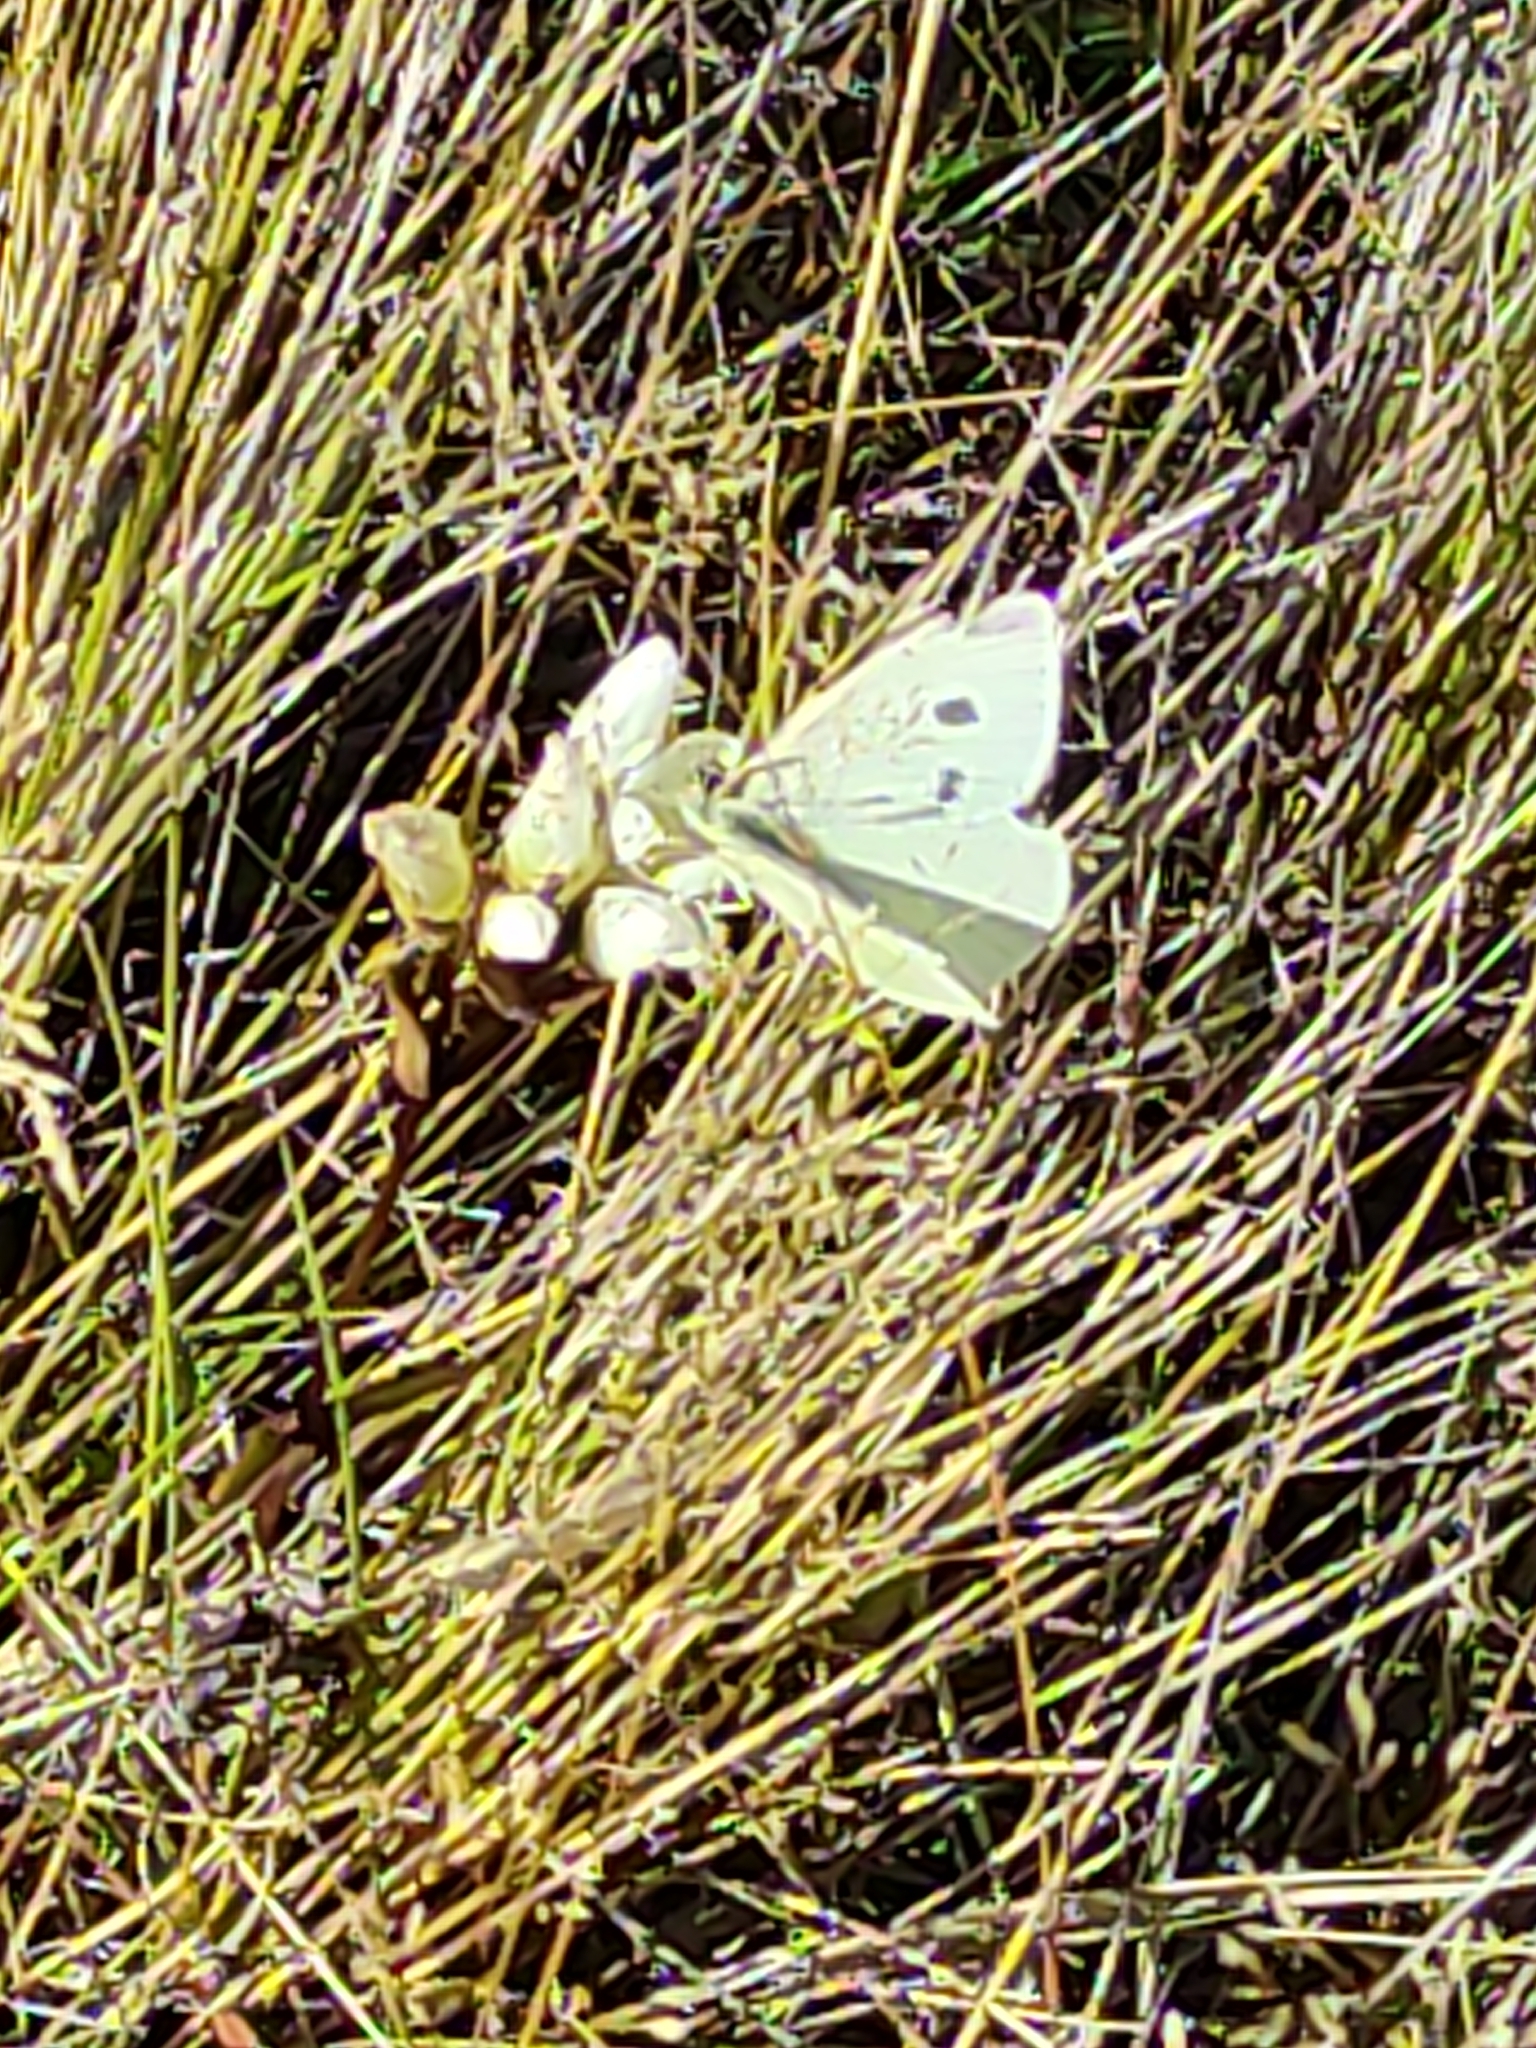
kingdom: Animalia
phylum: Arthropoda
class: Insecta
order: Lepidoptera
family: Pieridae
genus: Pieris
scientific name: Pieris rapae
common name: Small white
